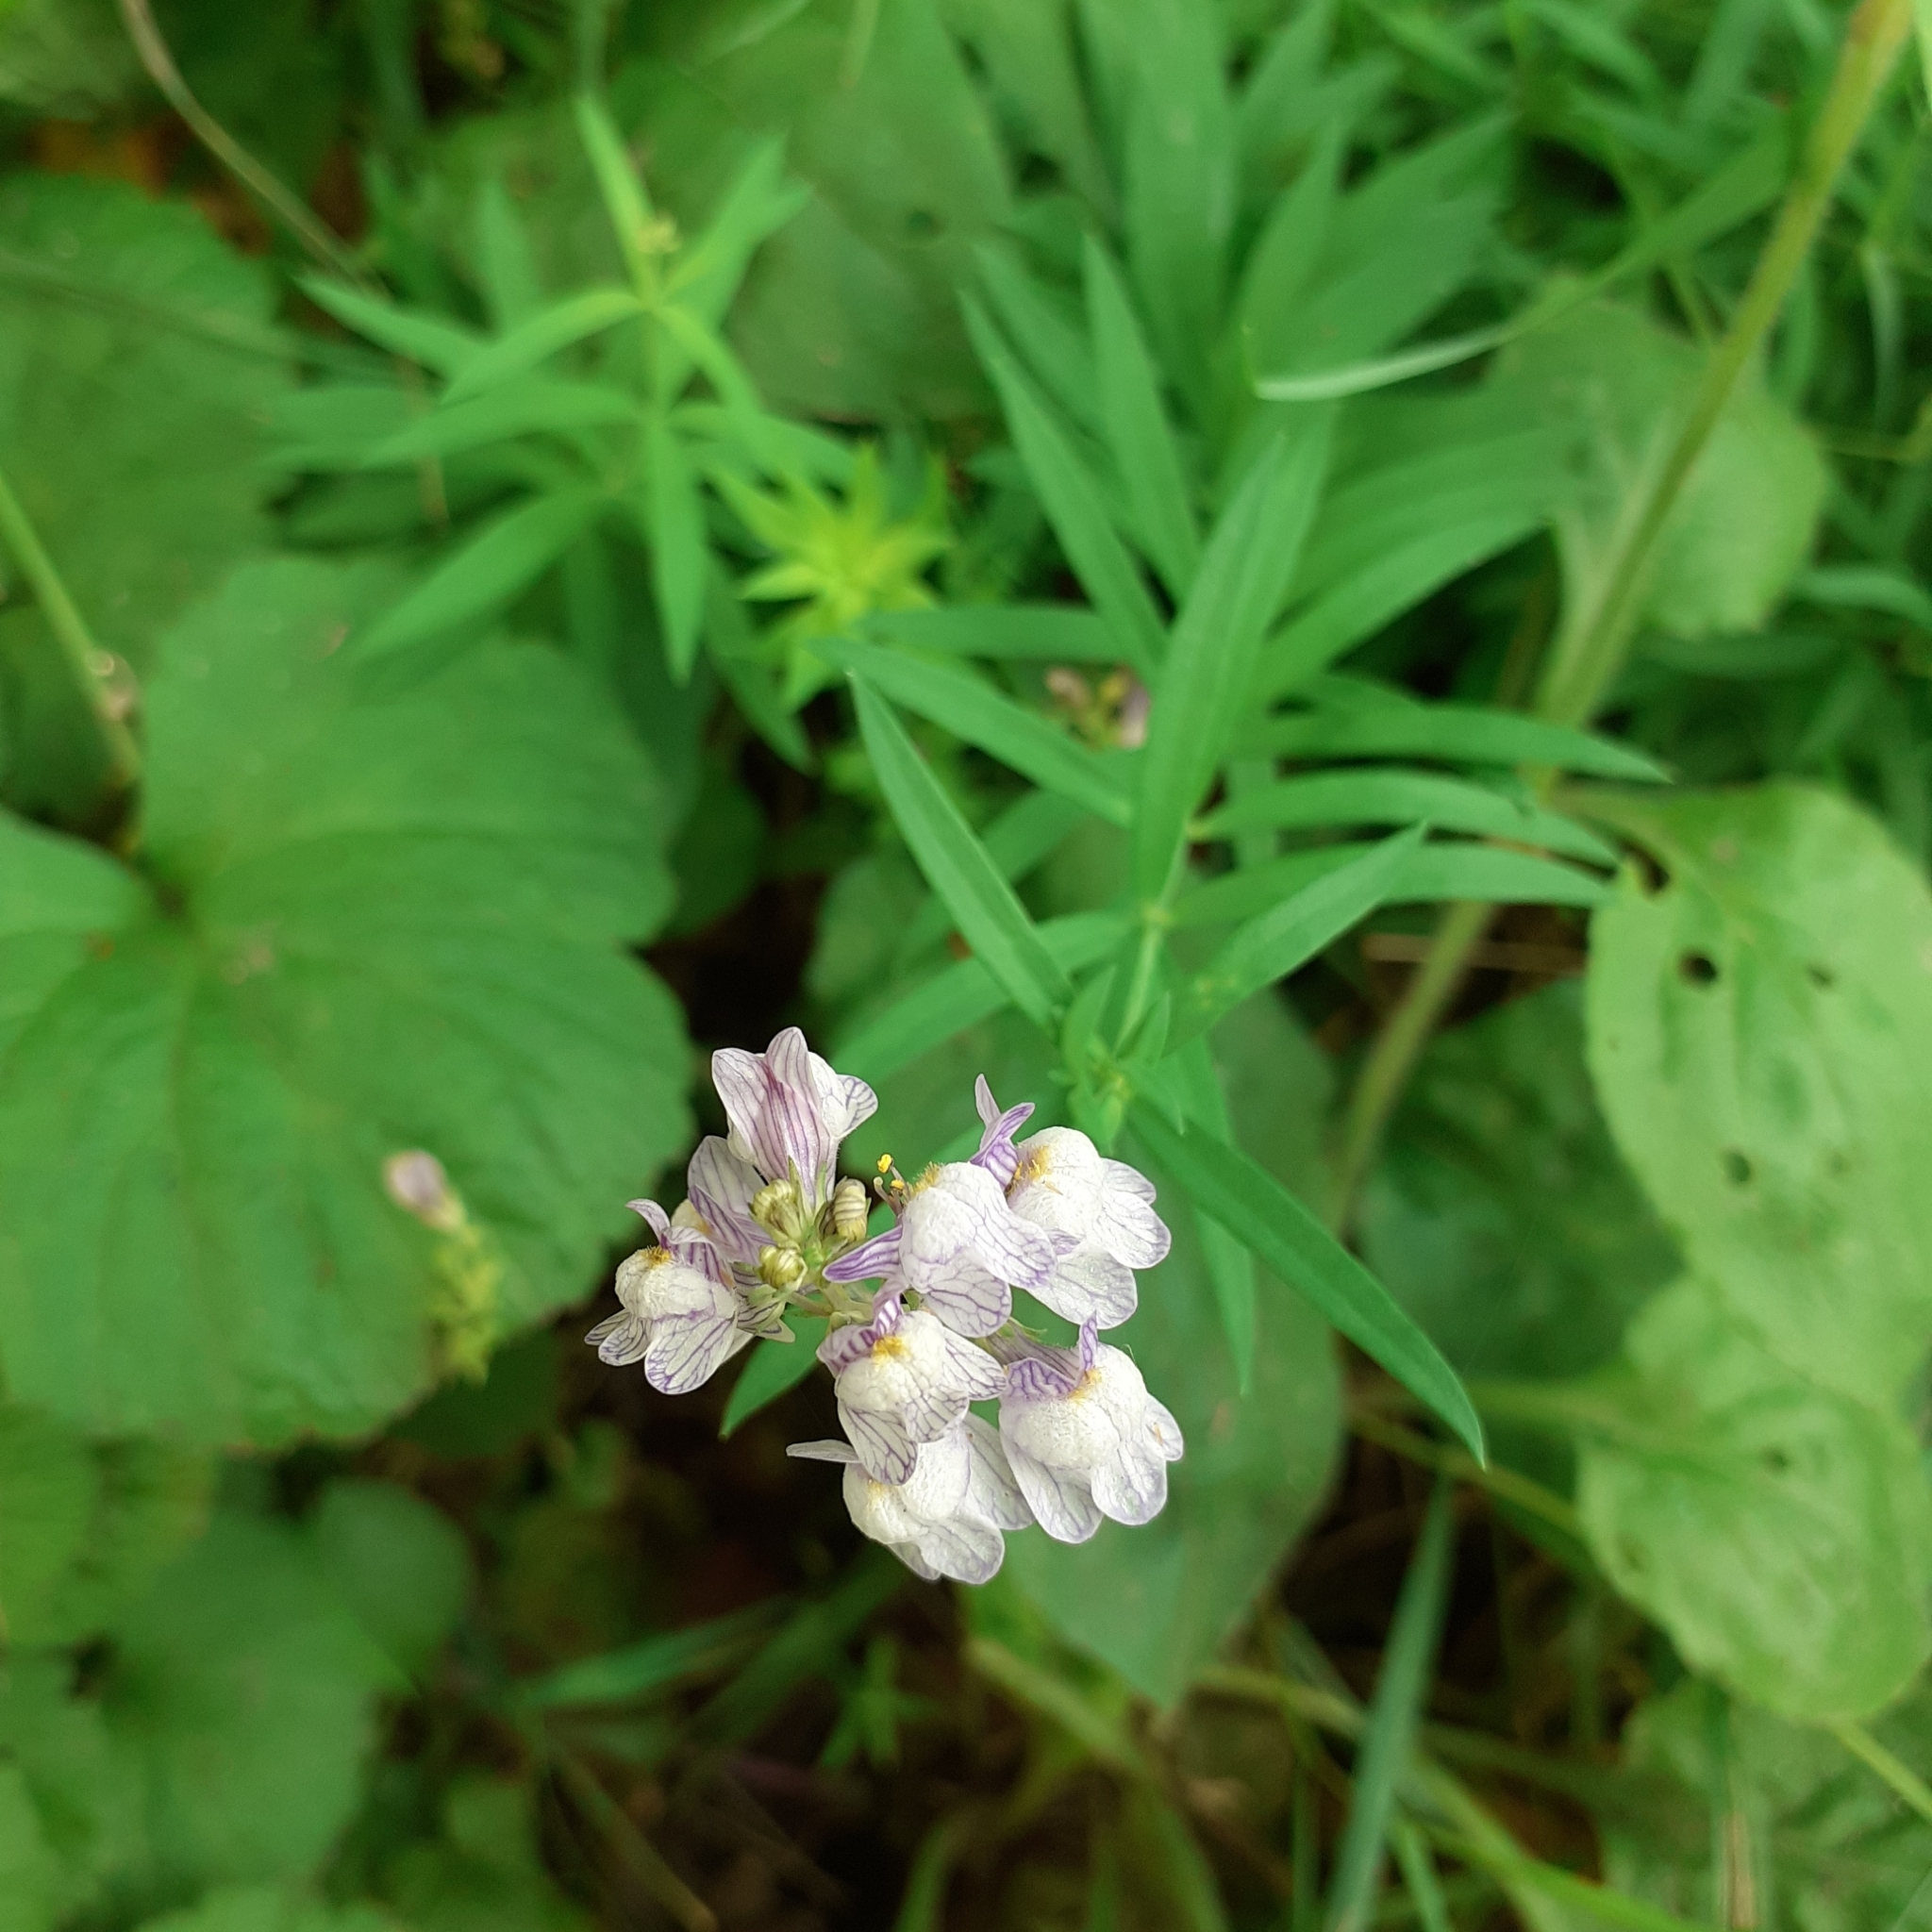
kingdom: Plantae
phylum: Tracheophyta
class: Magnoliopsida
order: Lamiales
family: Plantaginaceae
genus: Linaria
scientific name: Linaria repens
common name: Pale toadflax
